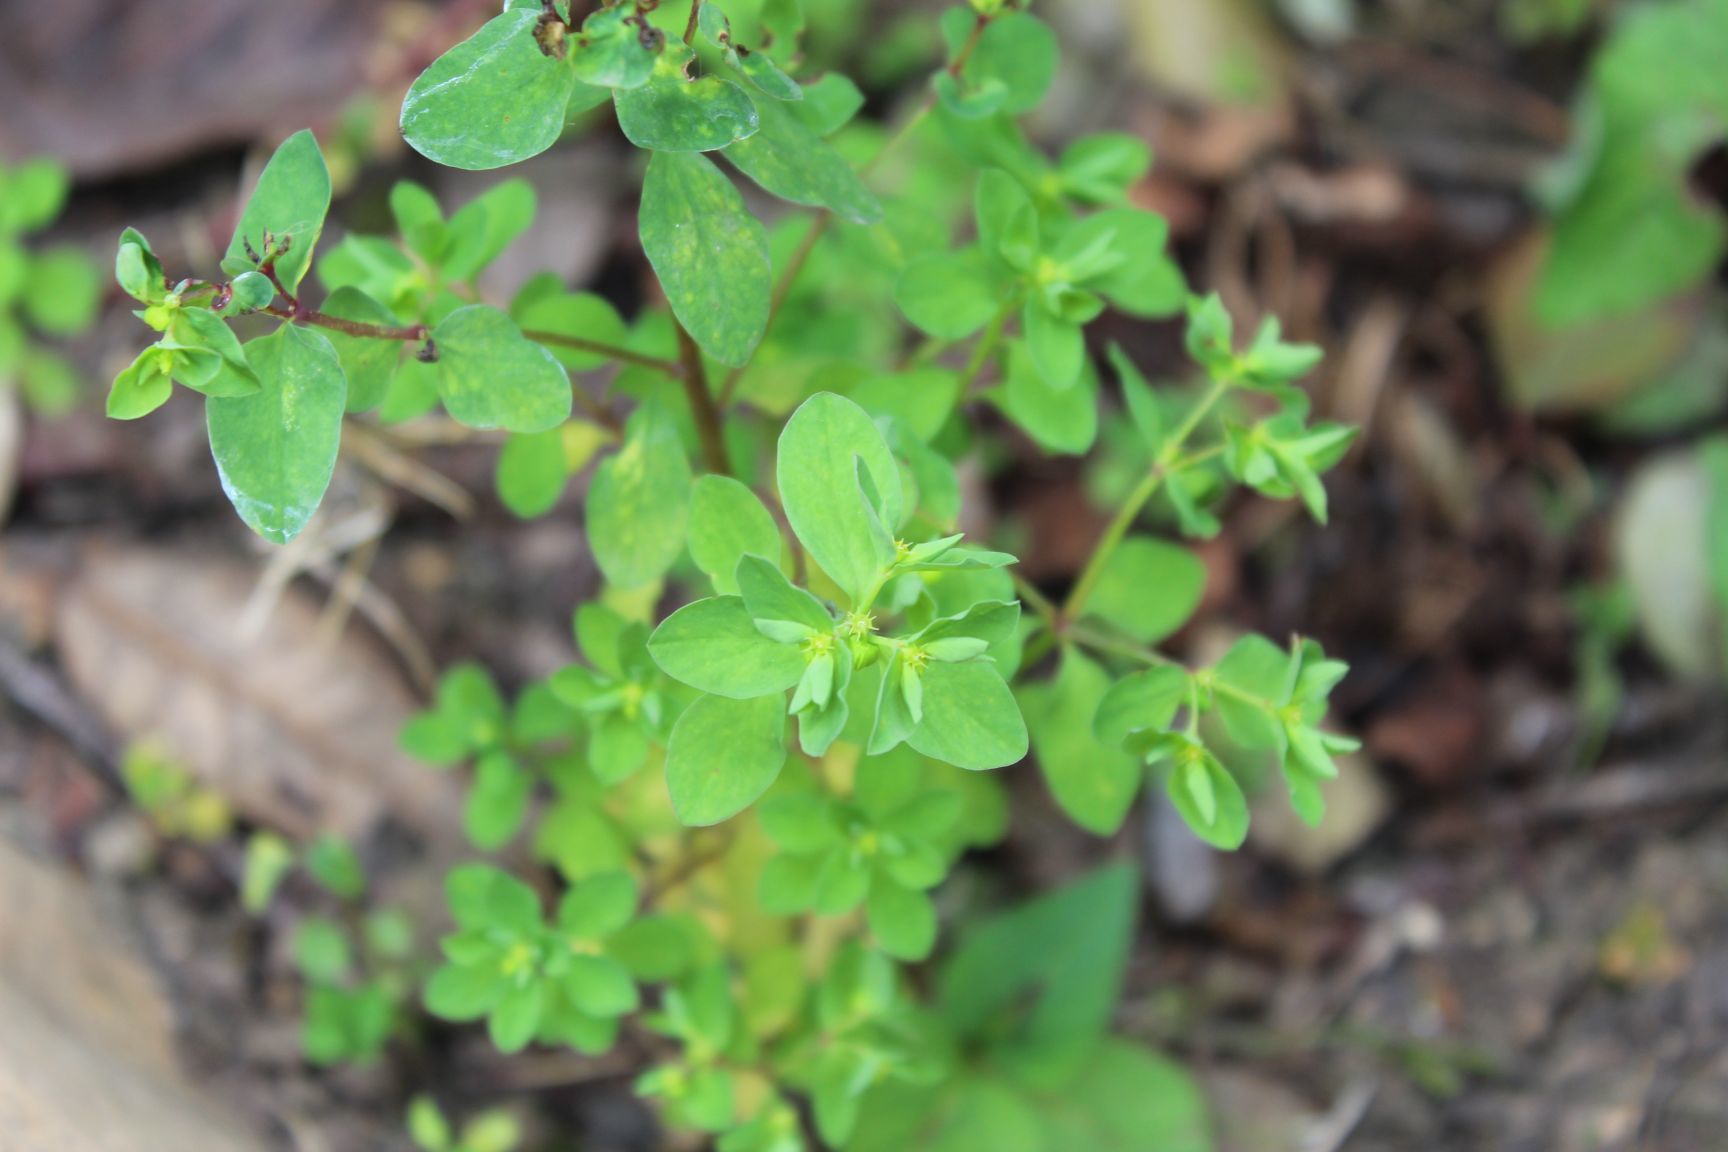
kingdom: Plantae
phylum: Tracheophyta
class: Magnoliopsida
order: Malpighiales
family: Euphorbiaceae
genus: Euphorbia
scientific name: Euphorbia peplus
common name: Petty spurge
